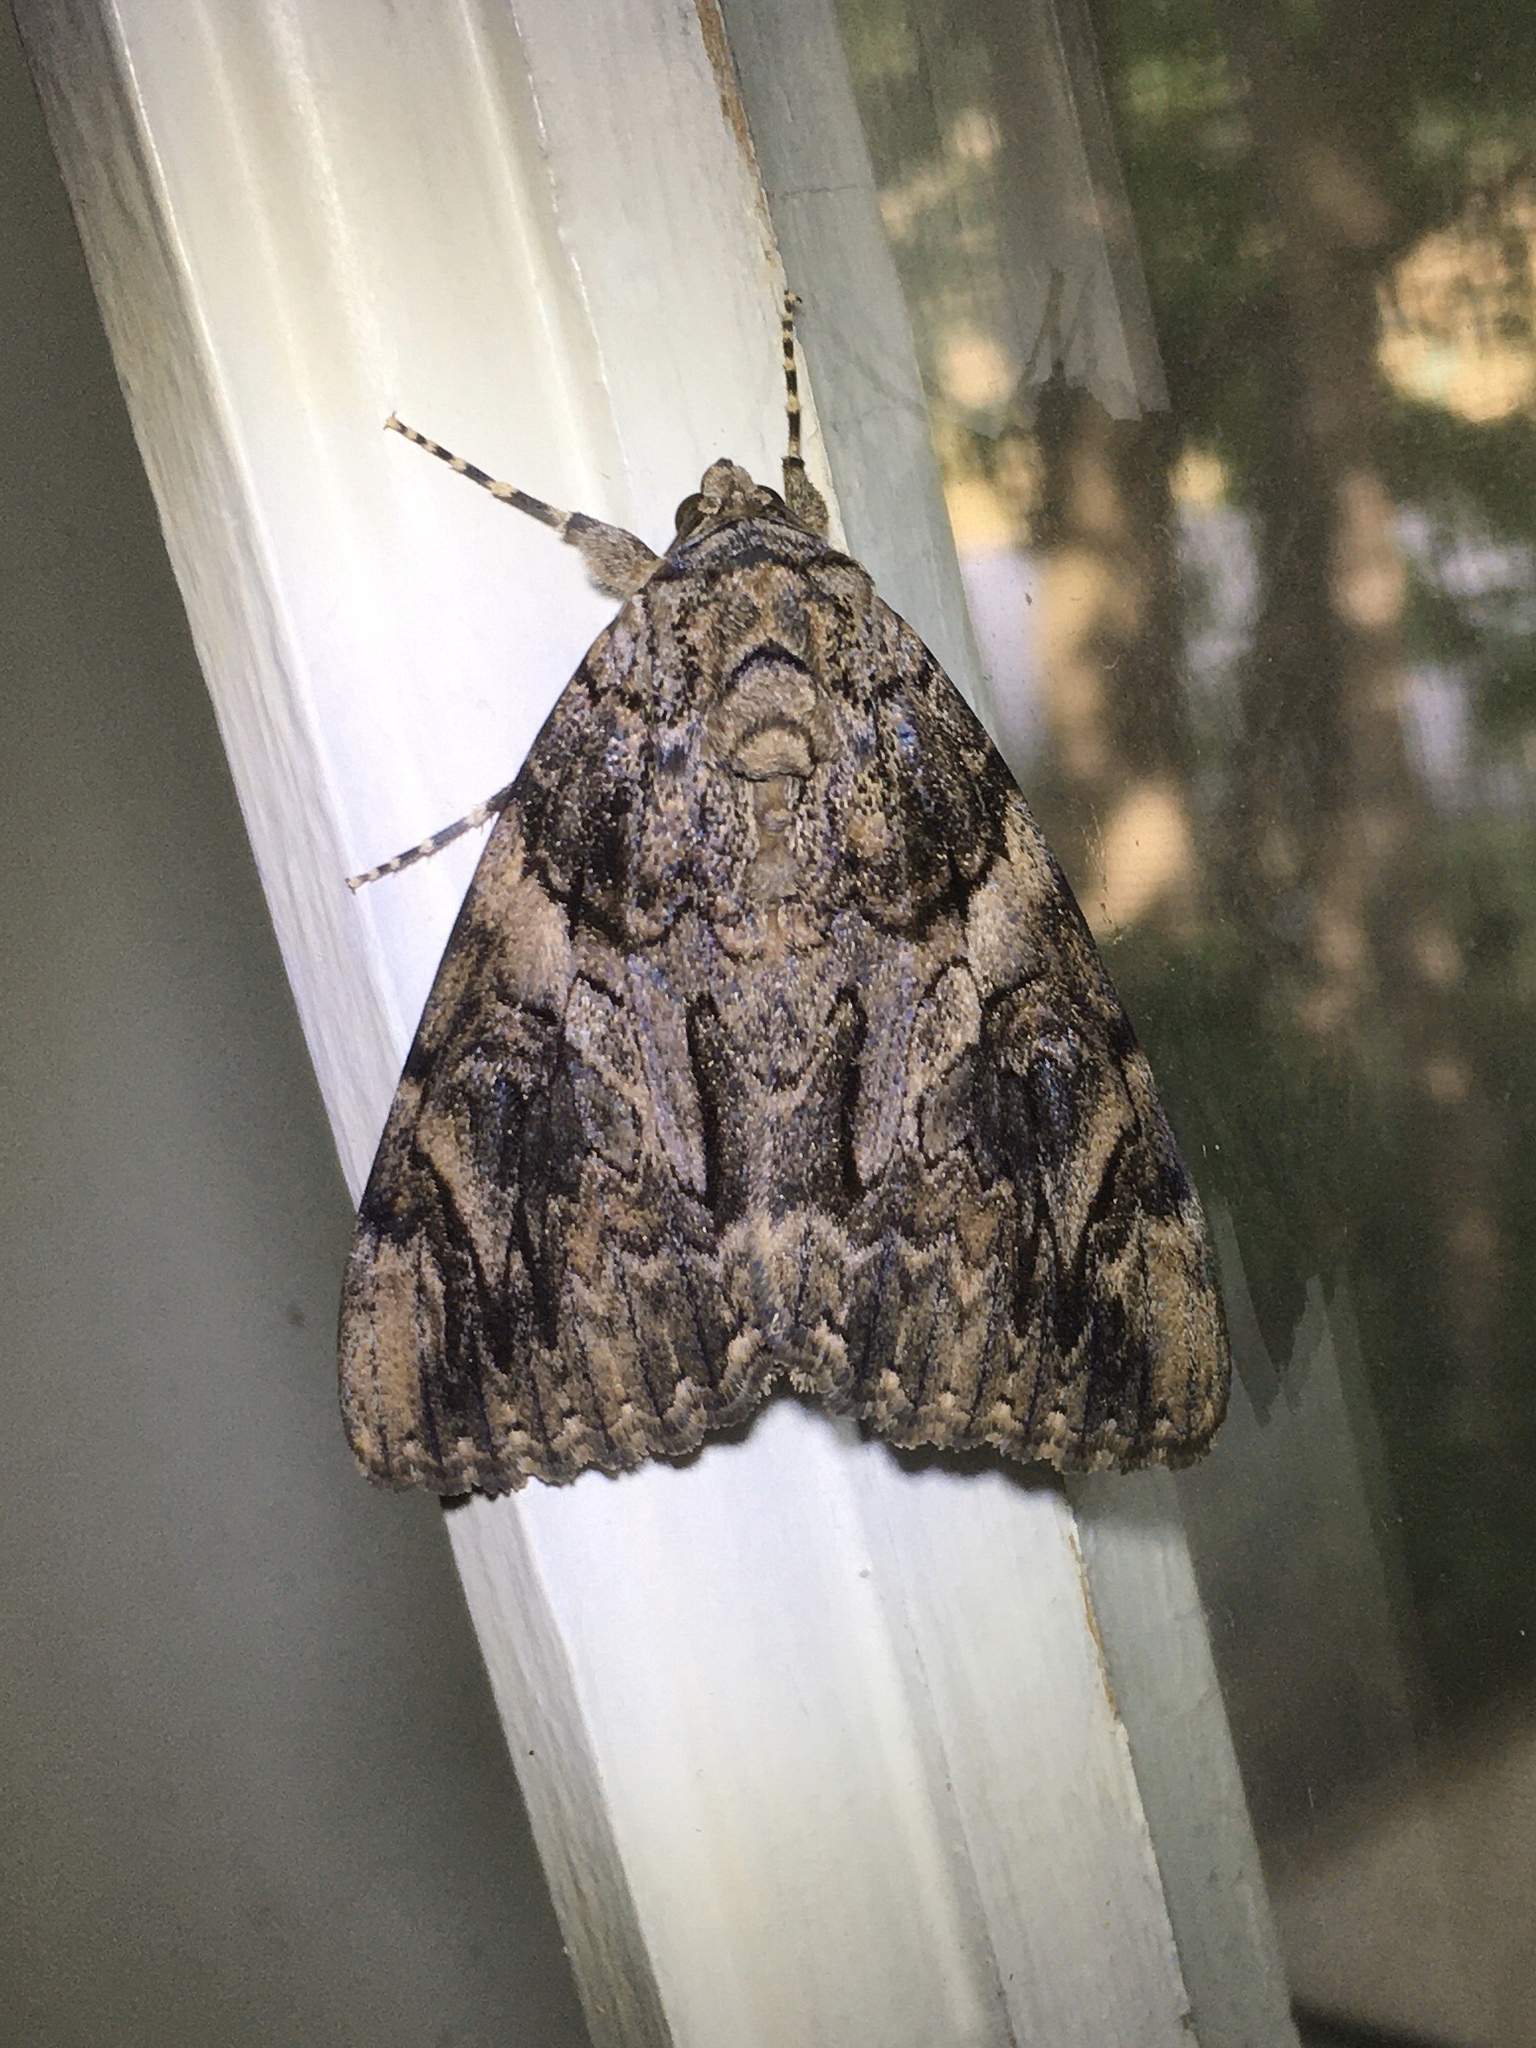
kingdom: Animalia
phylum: Arthropoda
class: Insecta
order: Lepidoptera
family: Erebidae
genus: Catocala
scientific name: Catocala piatrix
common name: The penitent underwing
